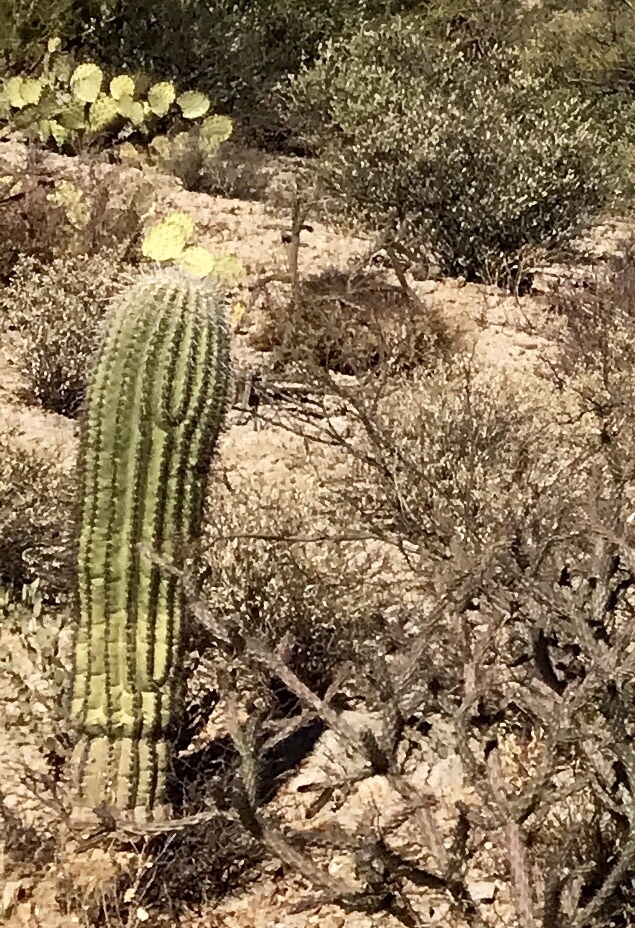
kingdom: Plantae
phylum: Tracheophyta
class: Magnoliopsida
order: Caryophyllales
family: Cactaceae
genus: Carnegiea
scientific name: Carnegiea gigantea
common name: Saguaro
